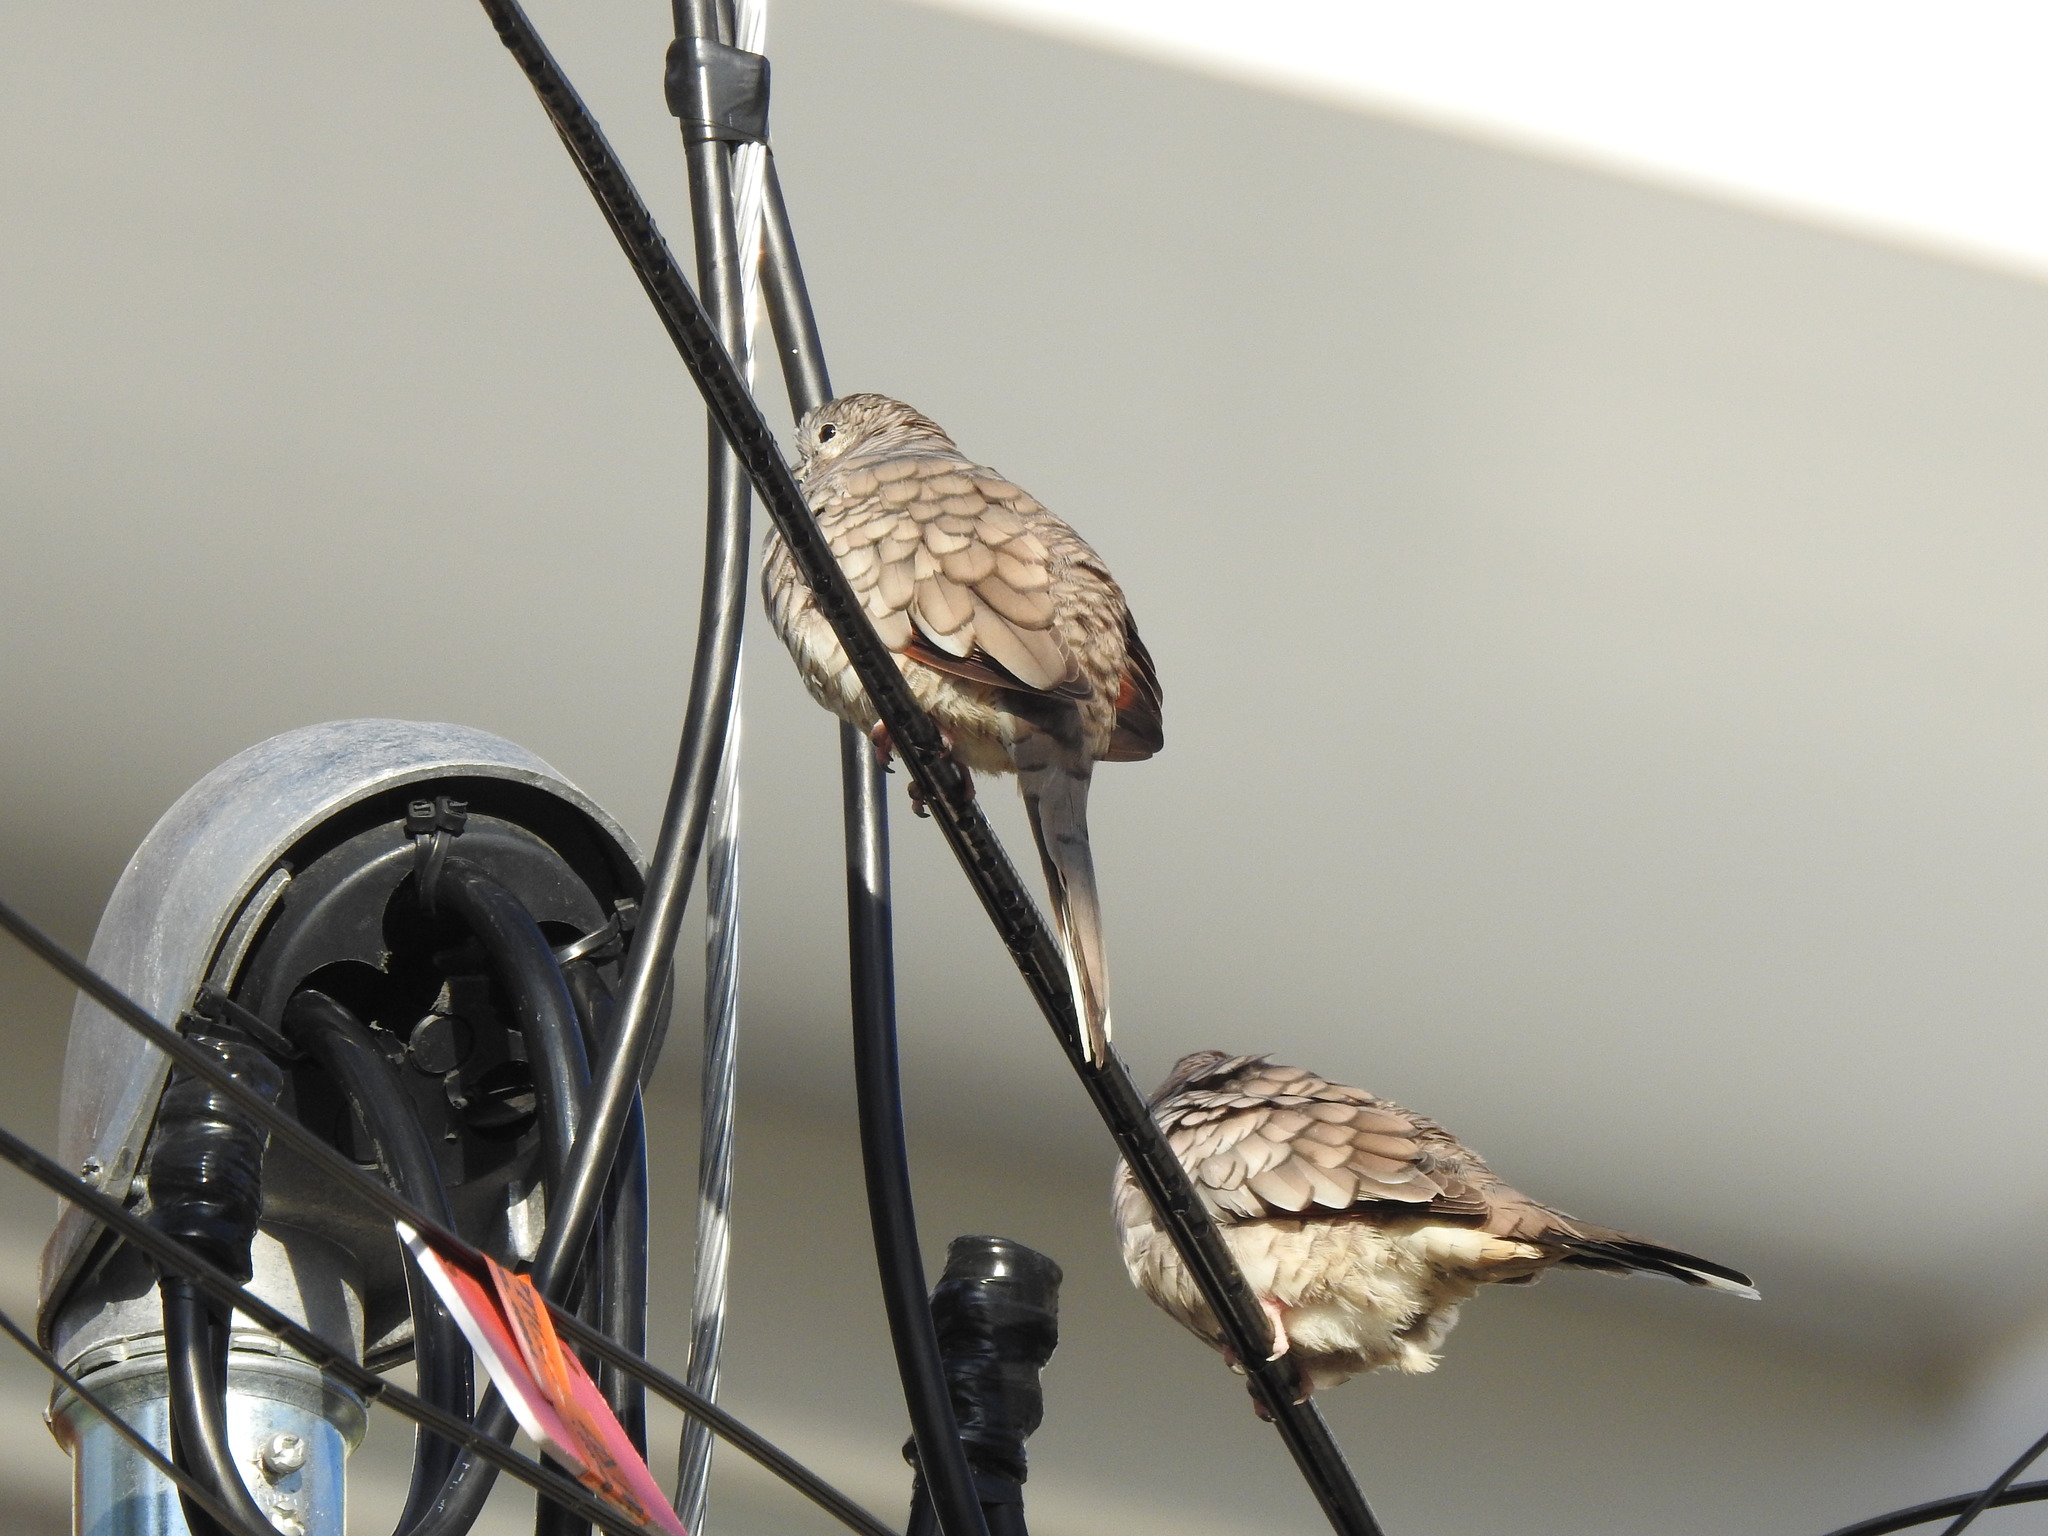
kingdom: Animalia
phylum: Chordata
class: Aves
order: Columbiformes
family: Columbidae
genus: Columbina
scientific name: Columbina inca
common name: Inca dove
